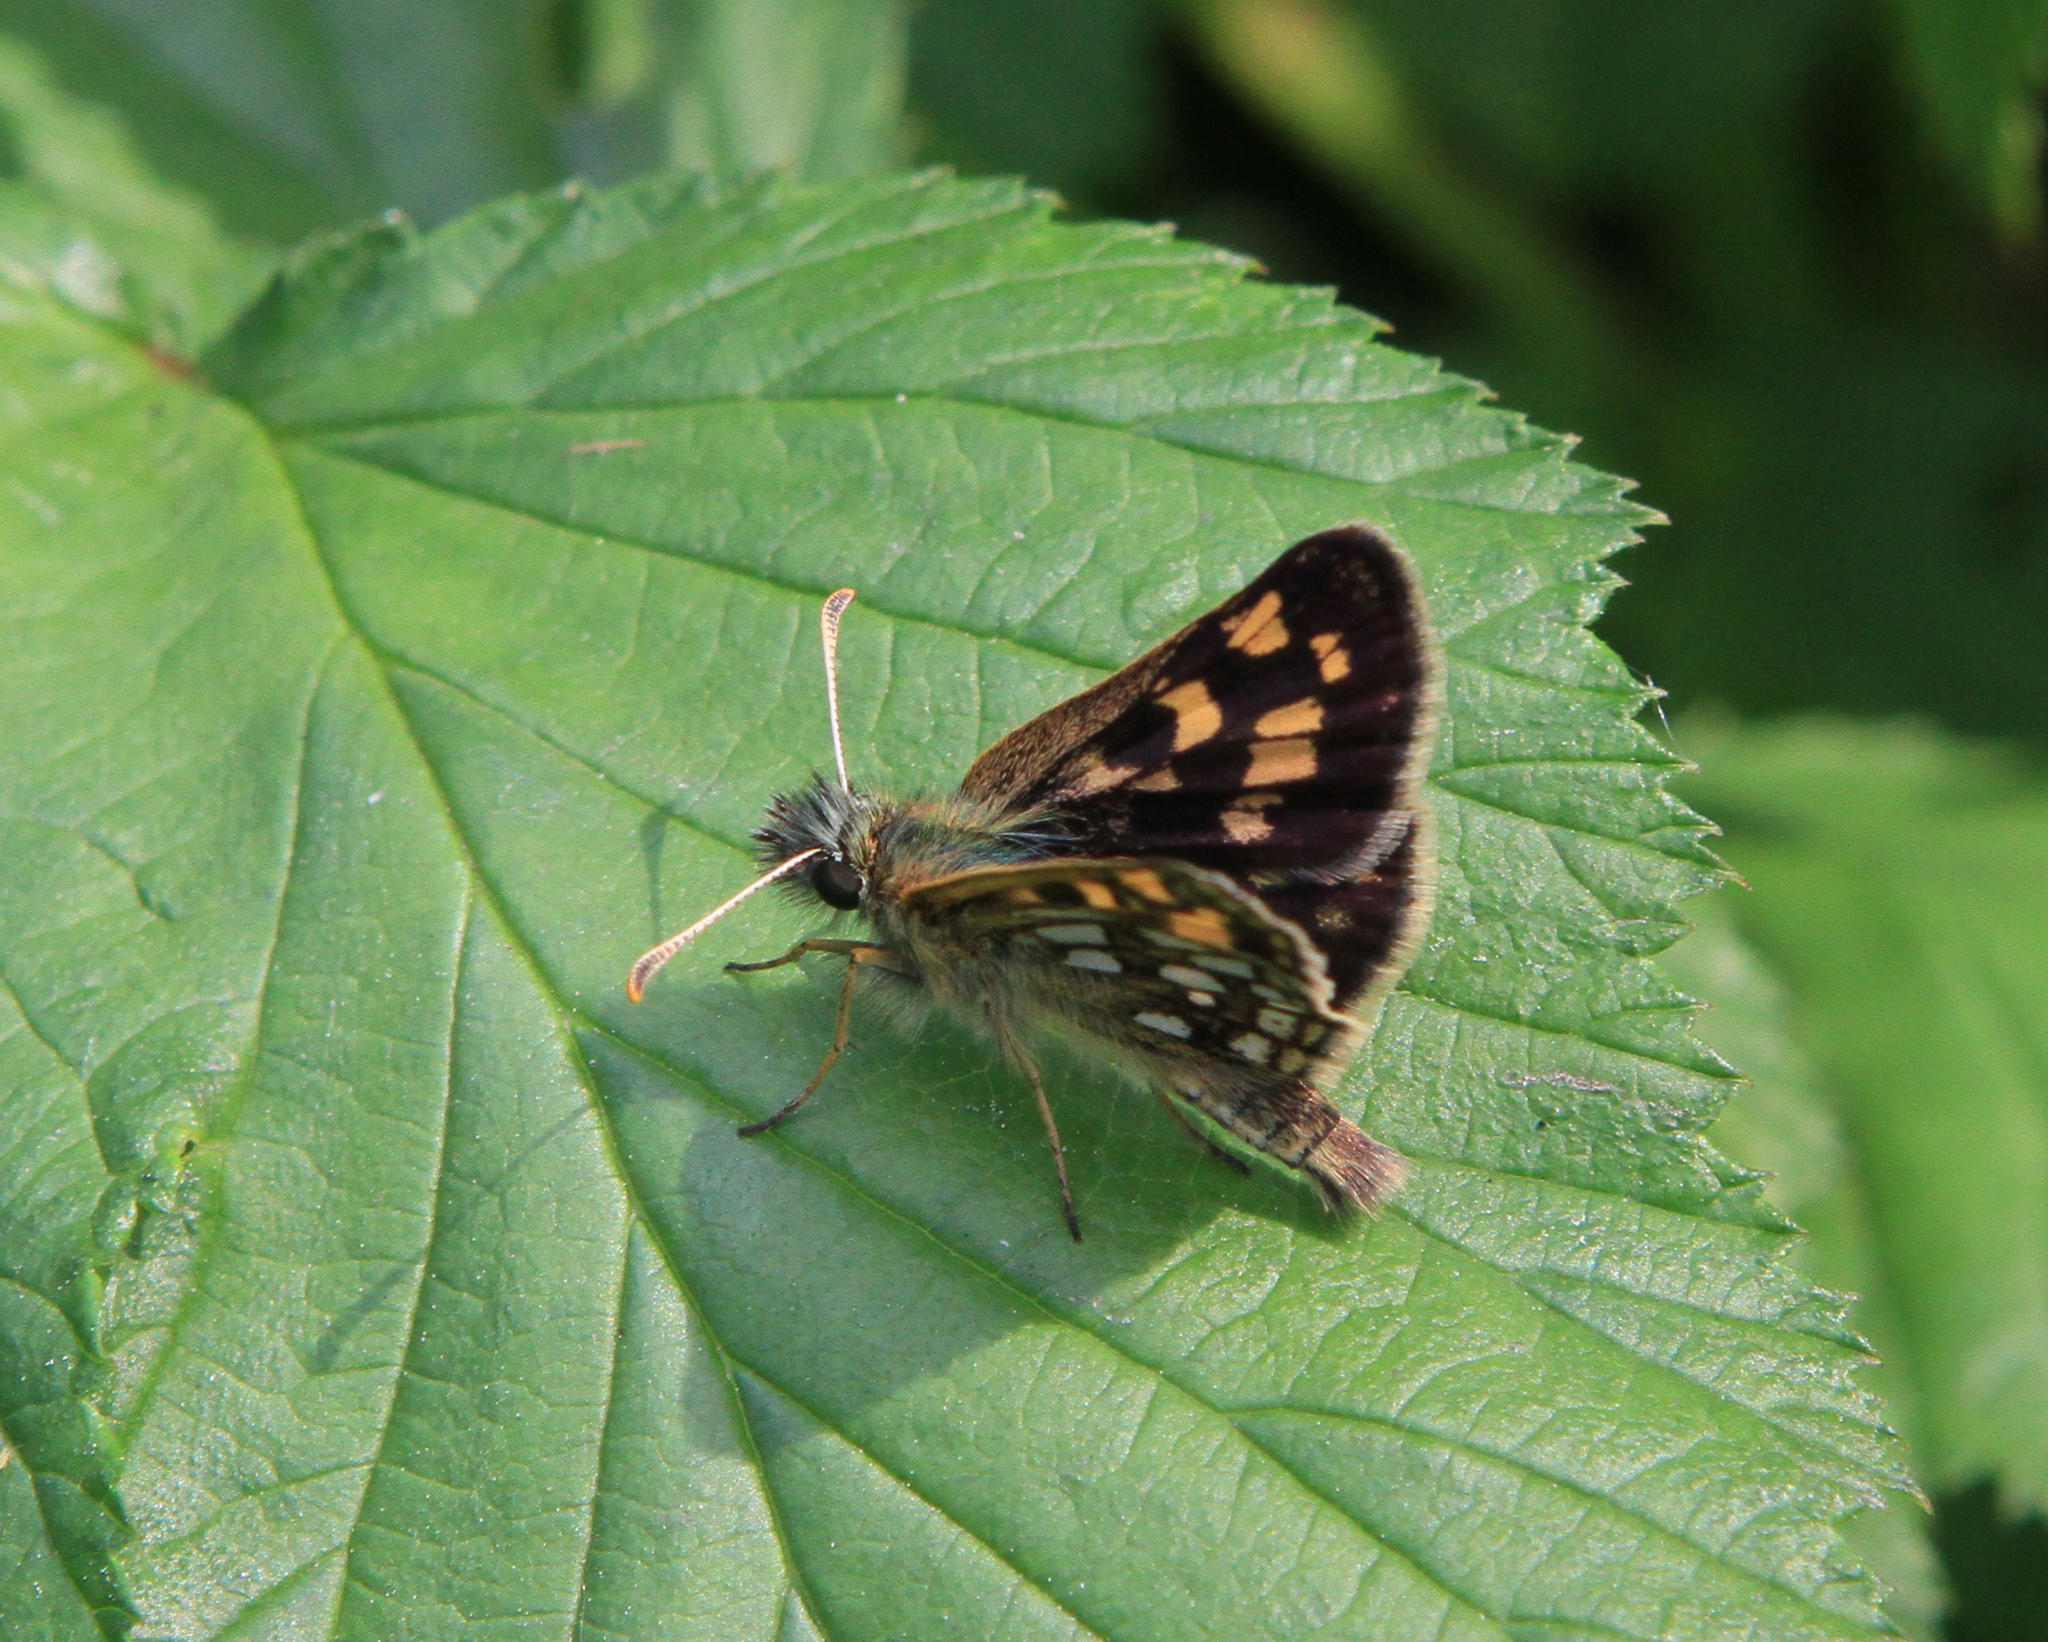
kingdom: Animalia
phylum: Arthropoda
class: Insecta
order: Lepidoptera
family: Hesperiidae
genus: Carterocephalus
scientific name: Carterocephalus palaemon
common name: Chequered skipper
